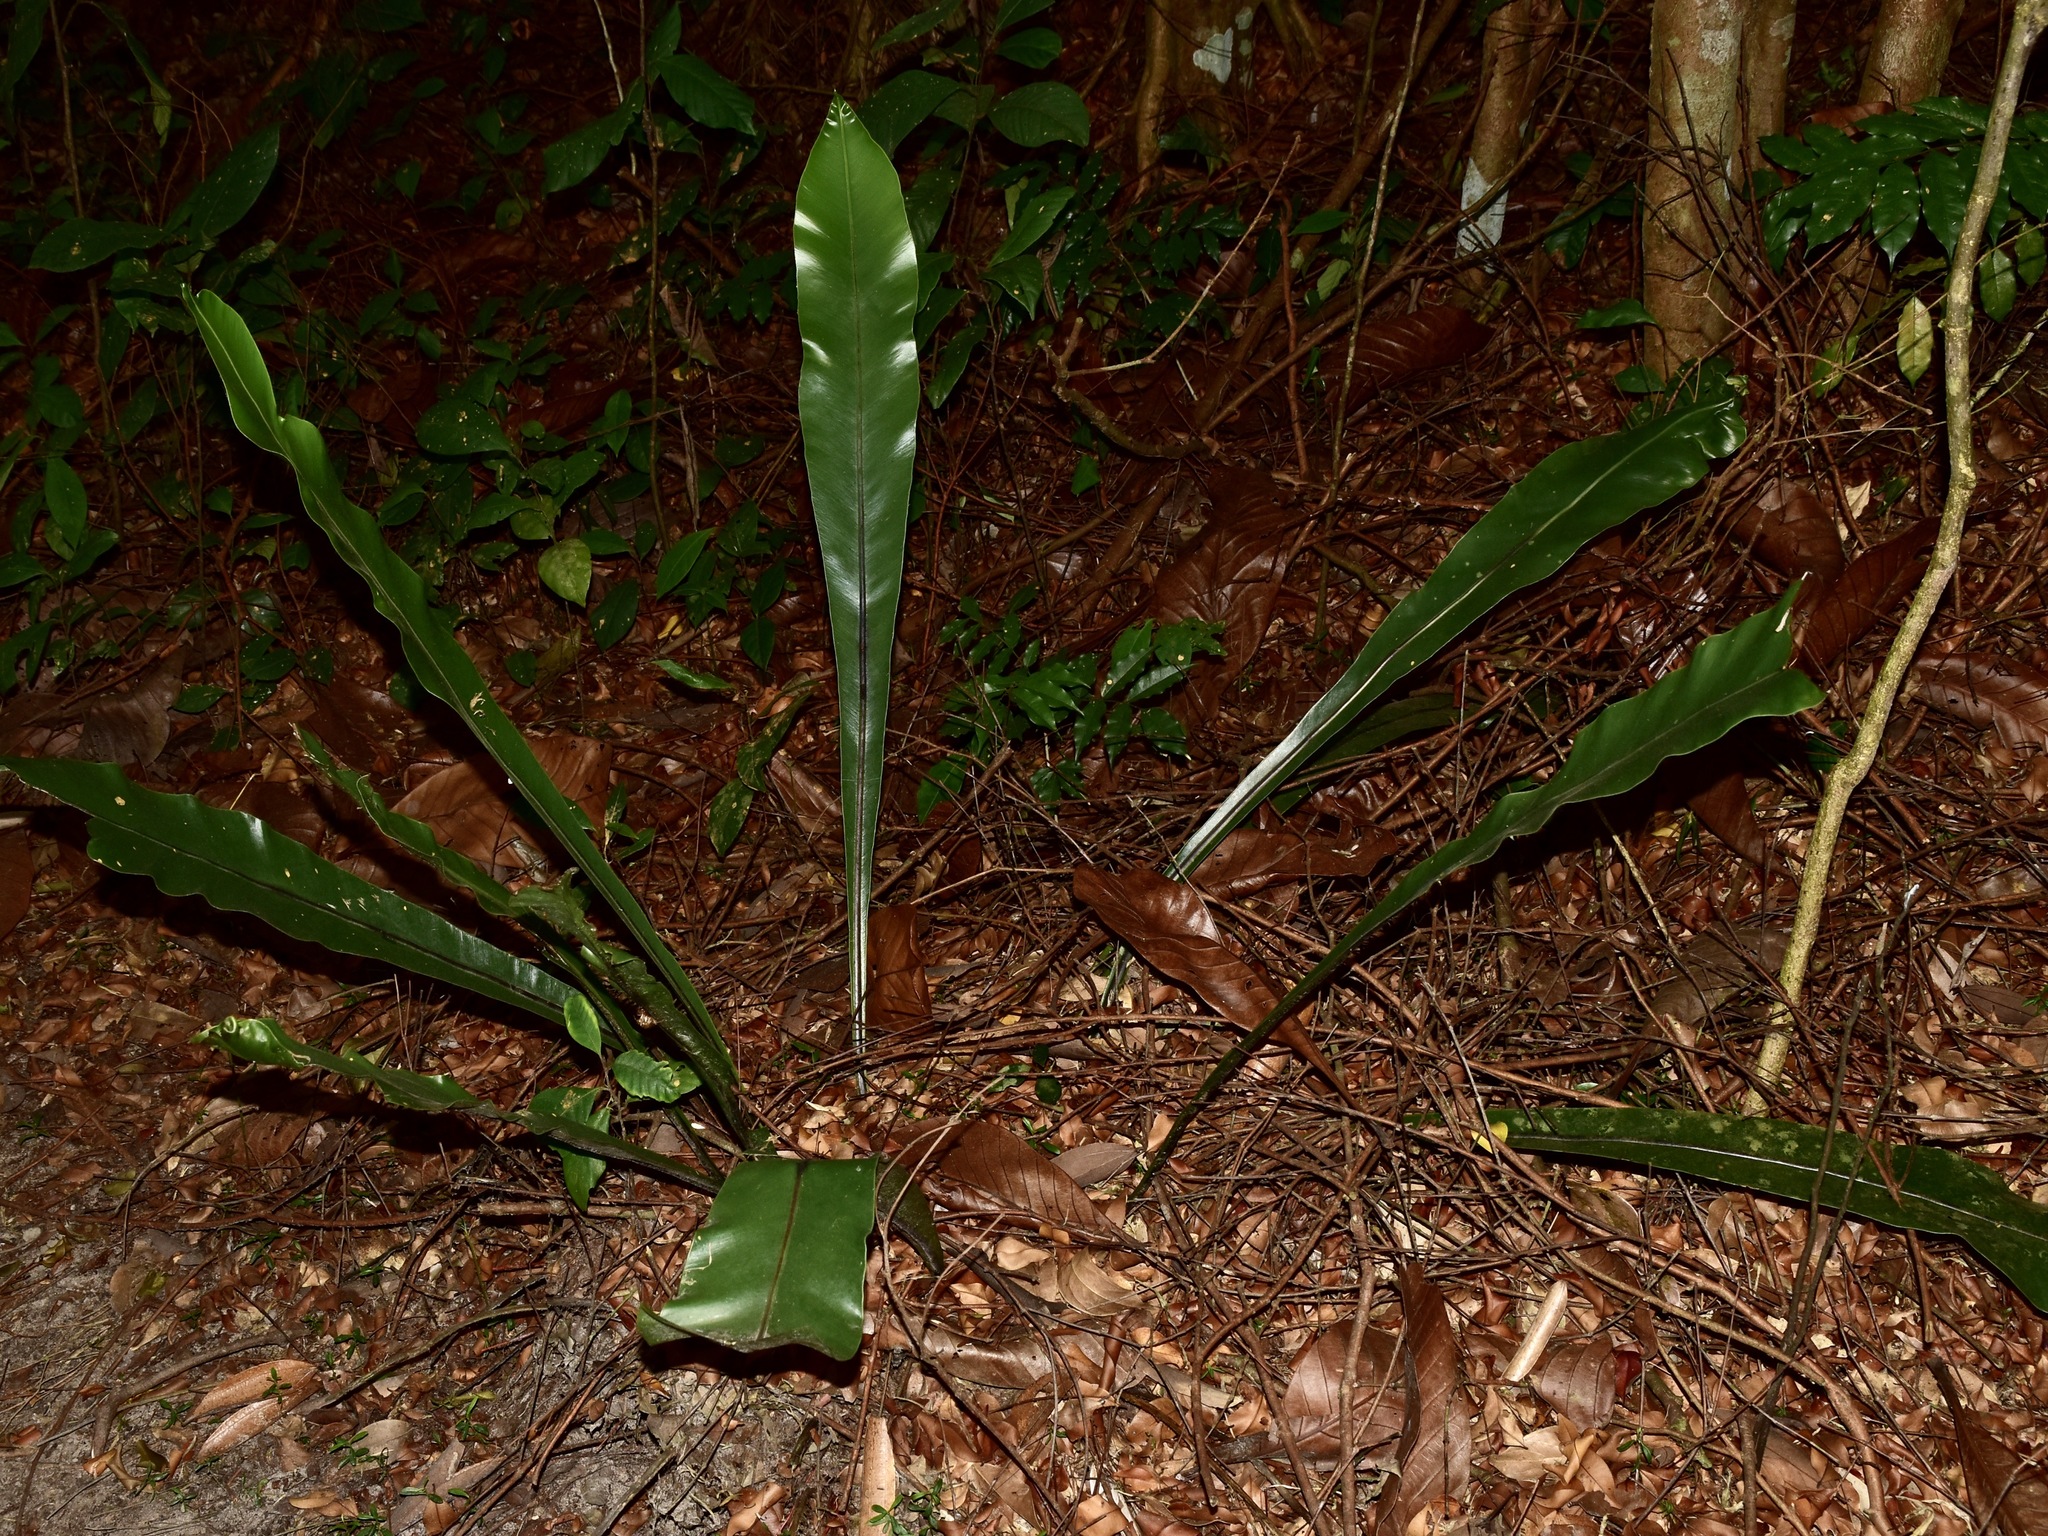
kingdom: Plantae
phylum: Tracheophyta
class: Polypodiopsida
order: Polypodiales
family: Aspleniaceae
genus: Asplenium
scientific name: Asplenium nidus
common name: Bird's-nest fern
